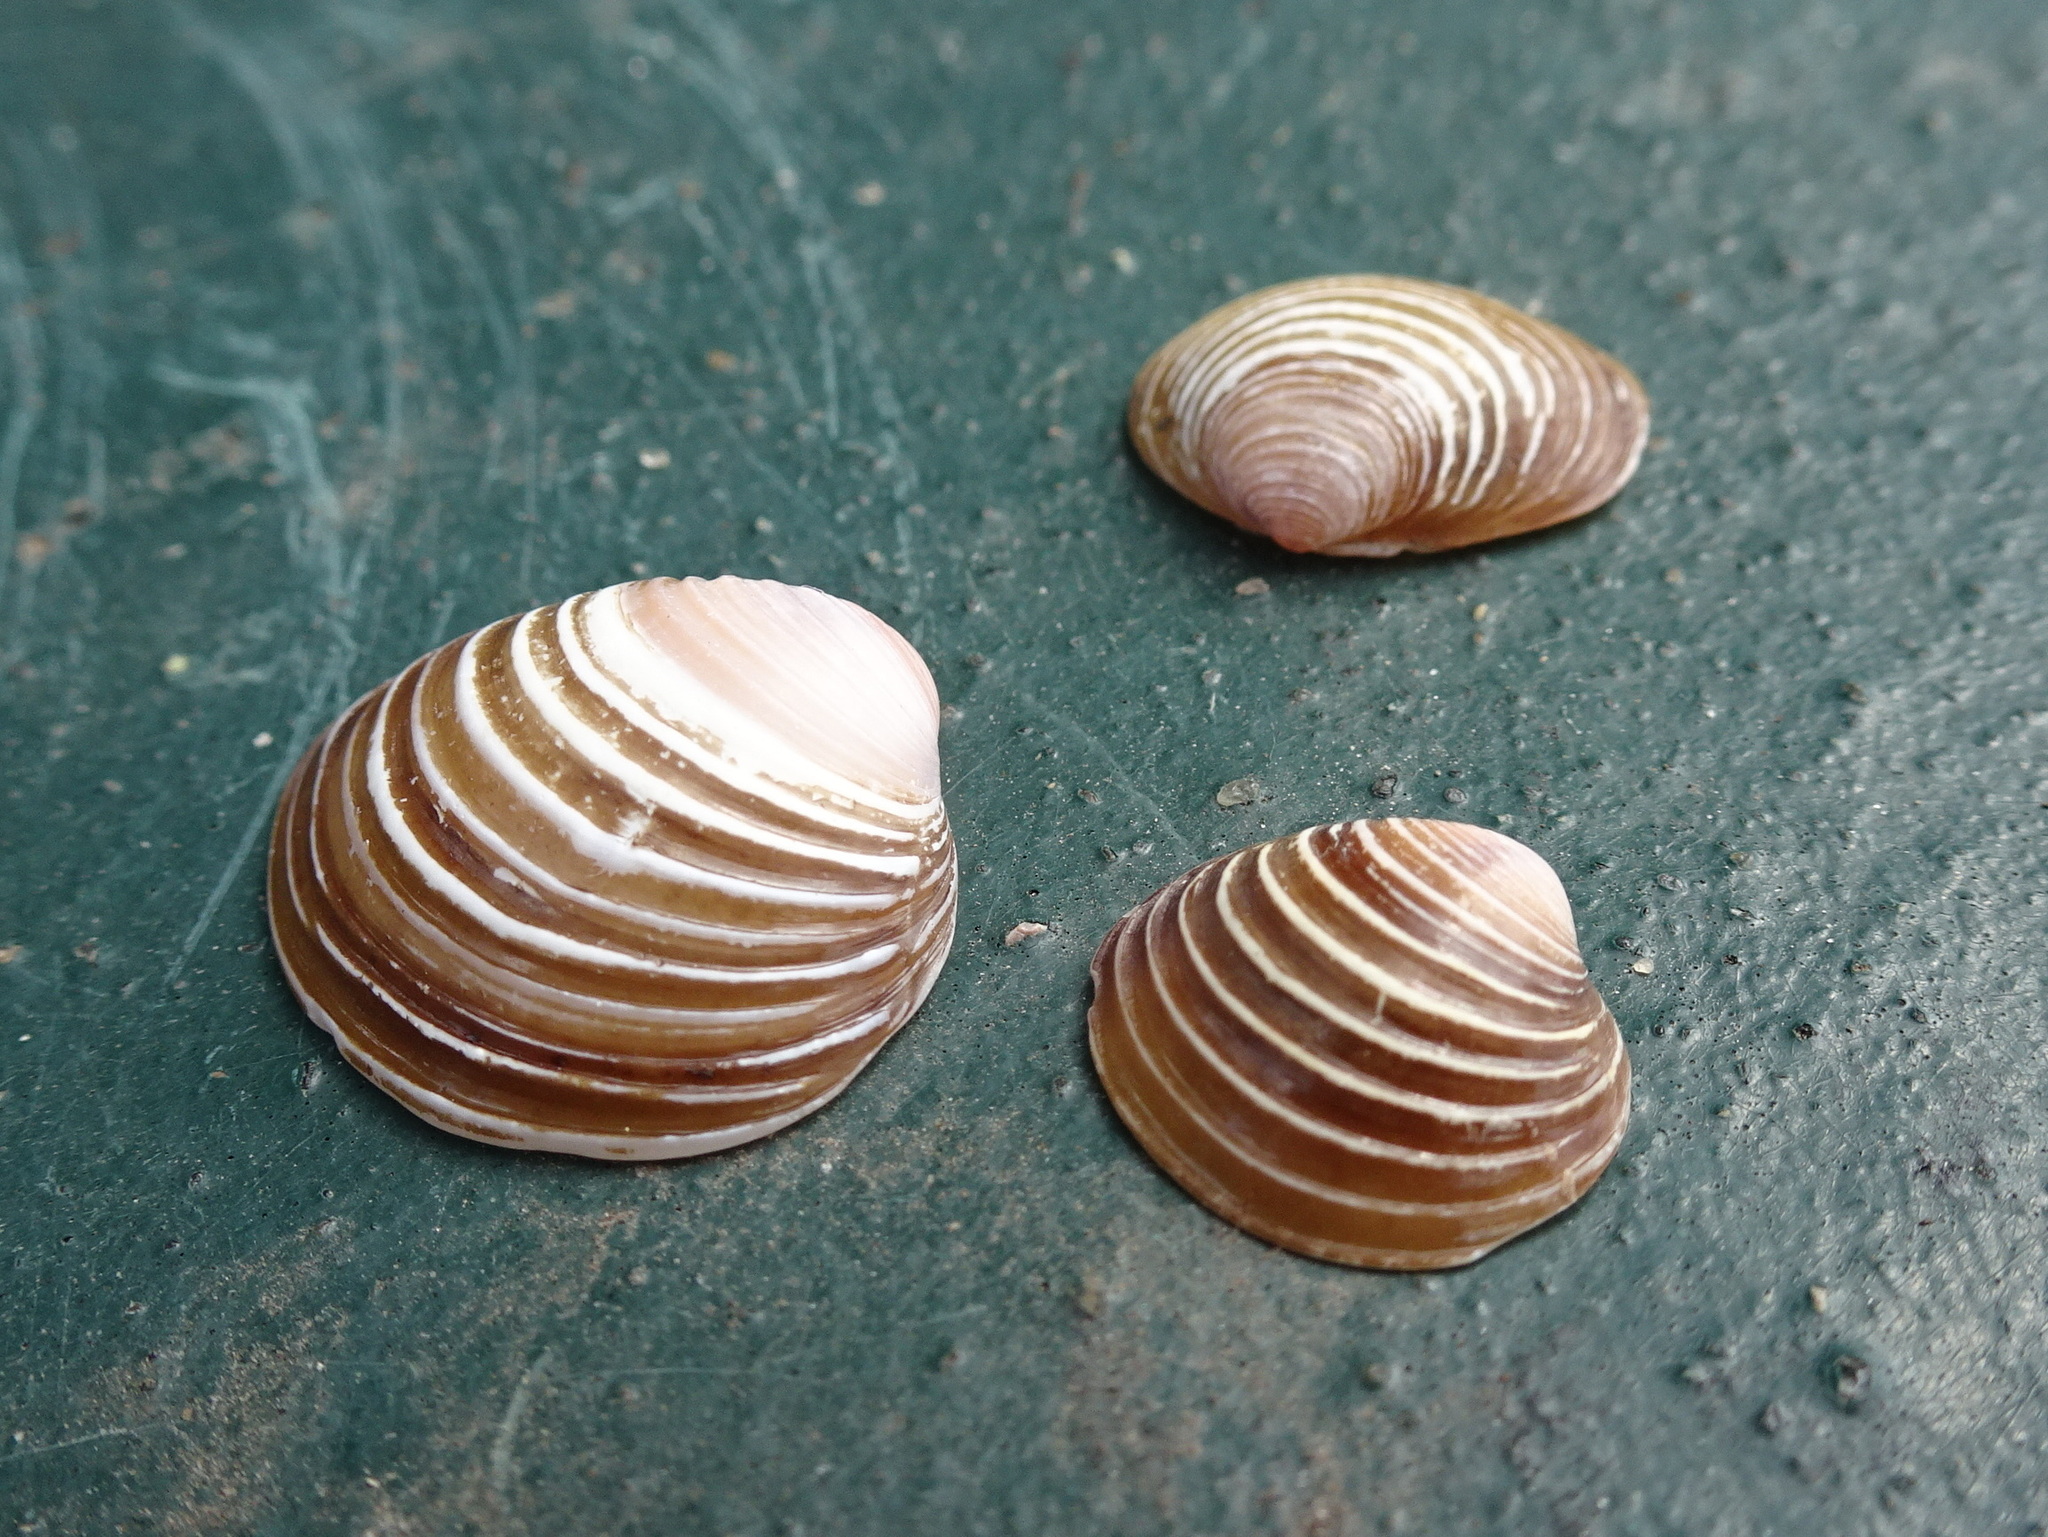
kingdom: Animalia
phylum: Mollusca
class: Bivalvia
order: Venerida
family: Cyrenidae
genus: Corbicula
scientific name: Corbicula fluminea
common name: Asian clam
